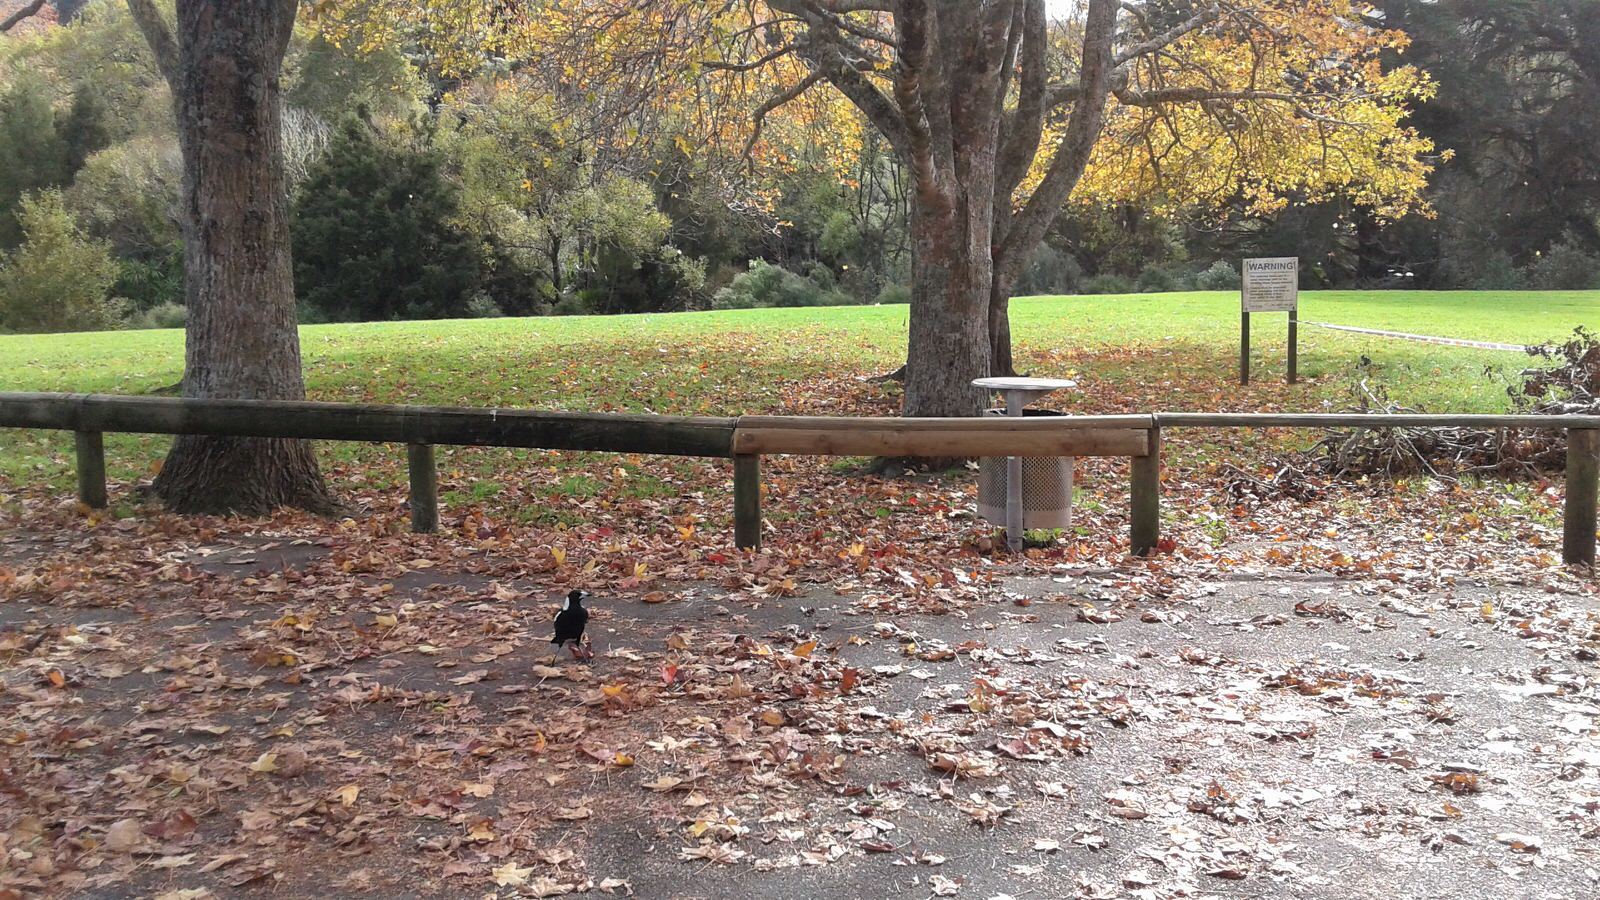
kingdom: Animalia
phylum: Chordata
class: Aves
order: Passeriformes
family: Cracticidae
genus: Gymnorhina
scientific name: Gymnorhina tibicen
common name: Australian magpie
